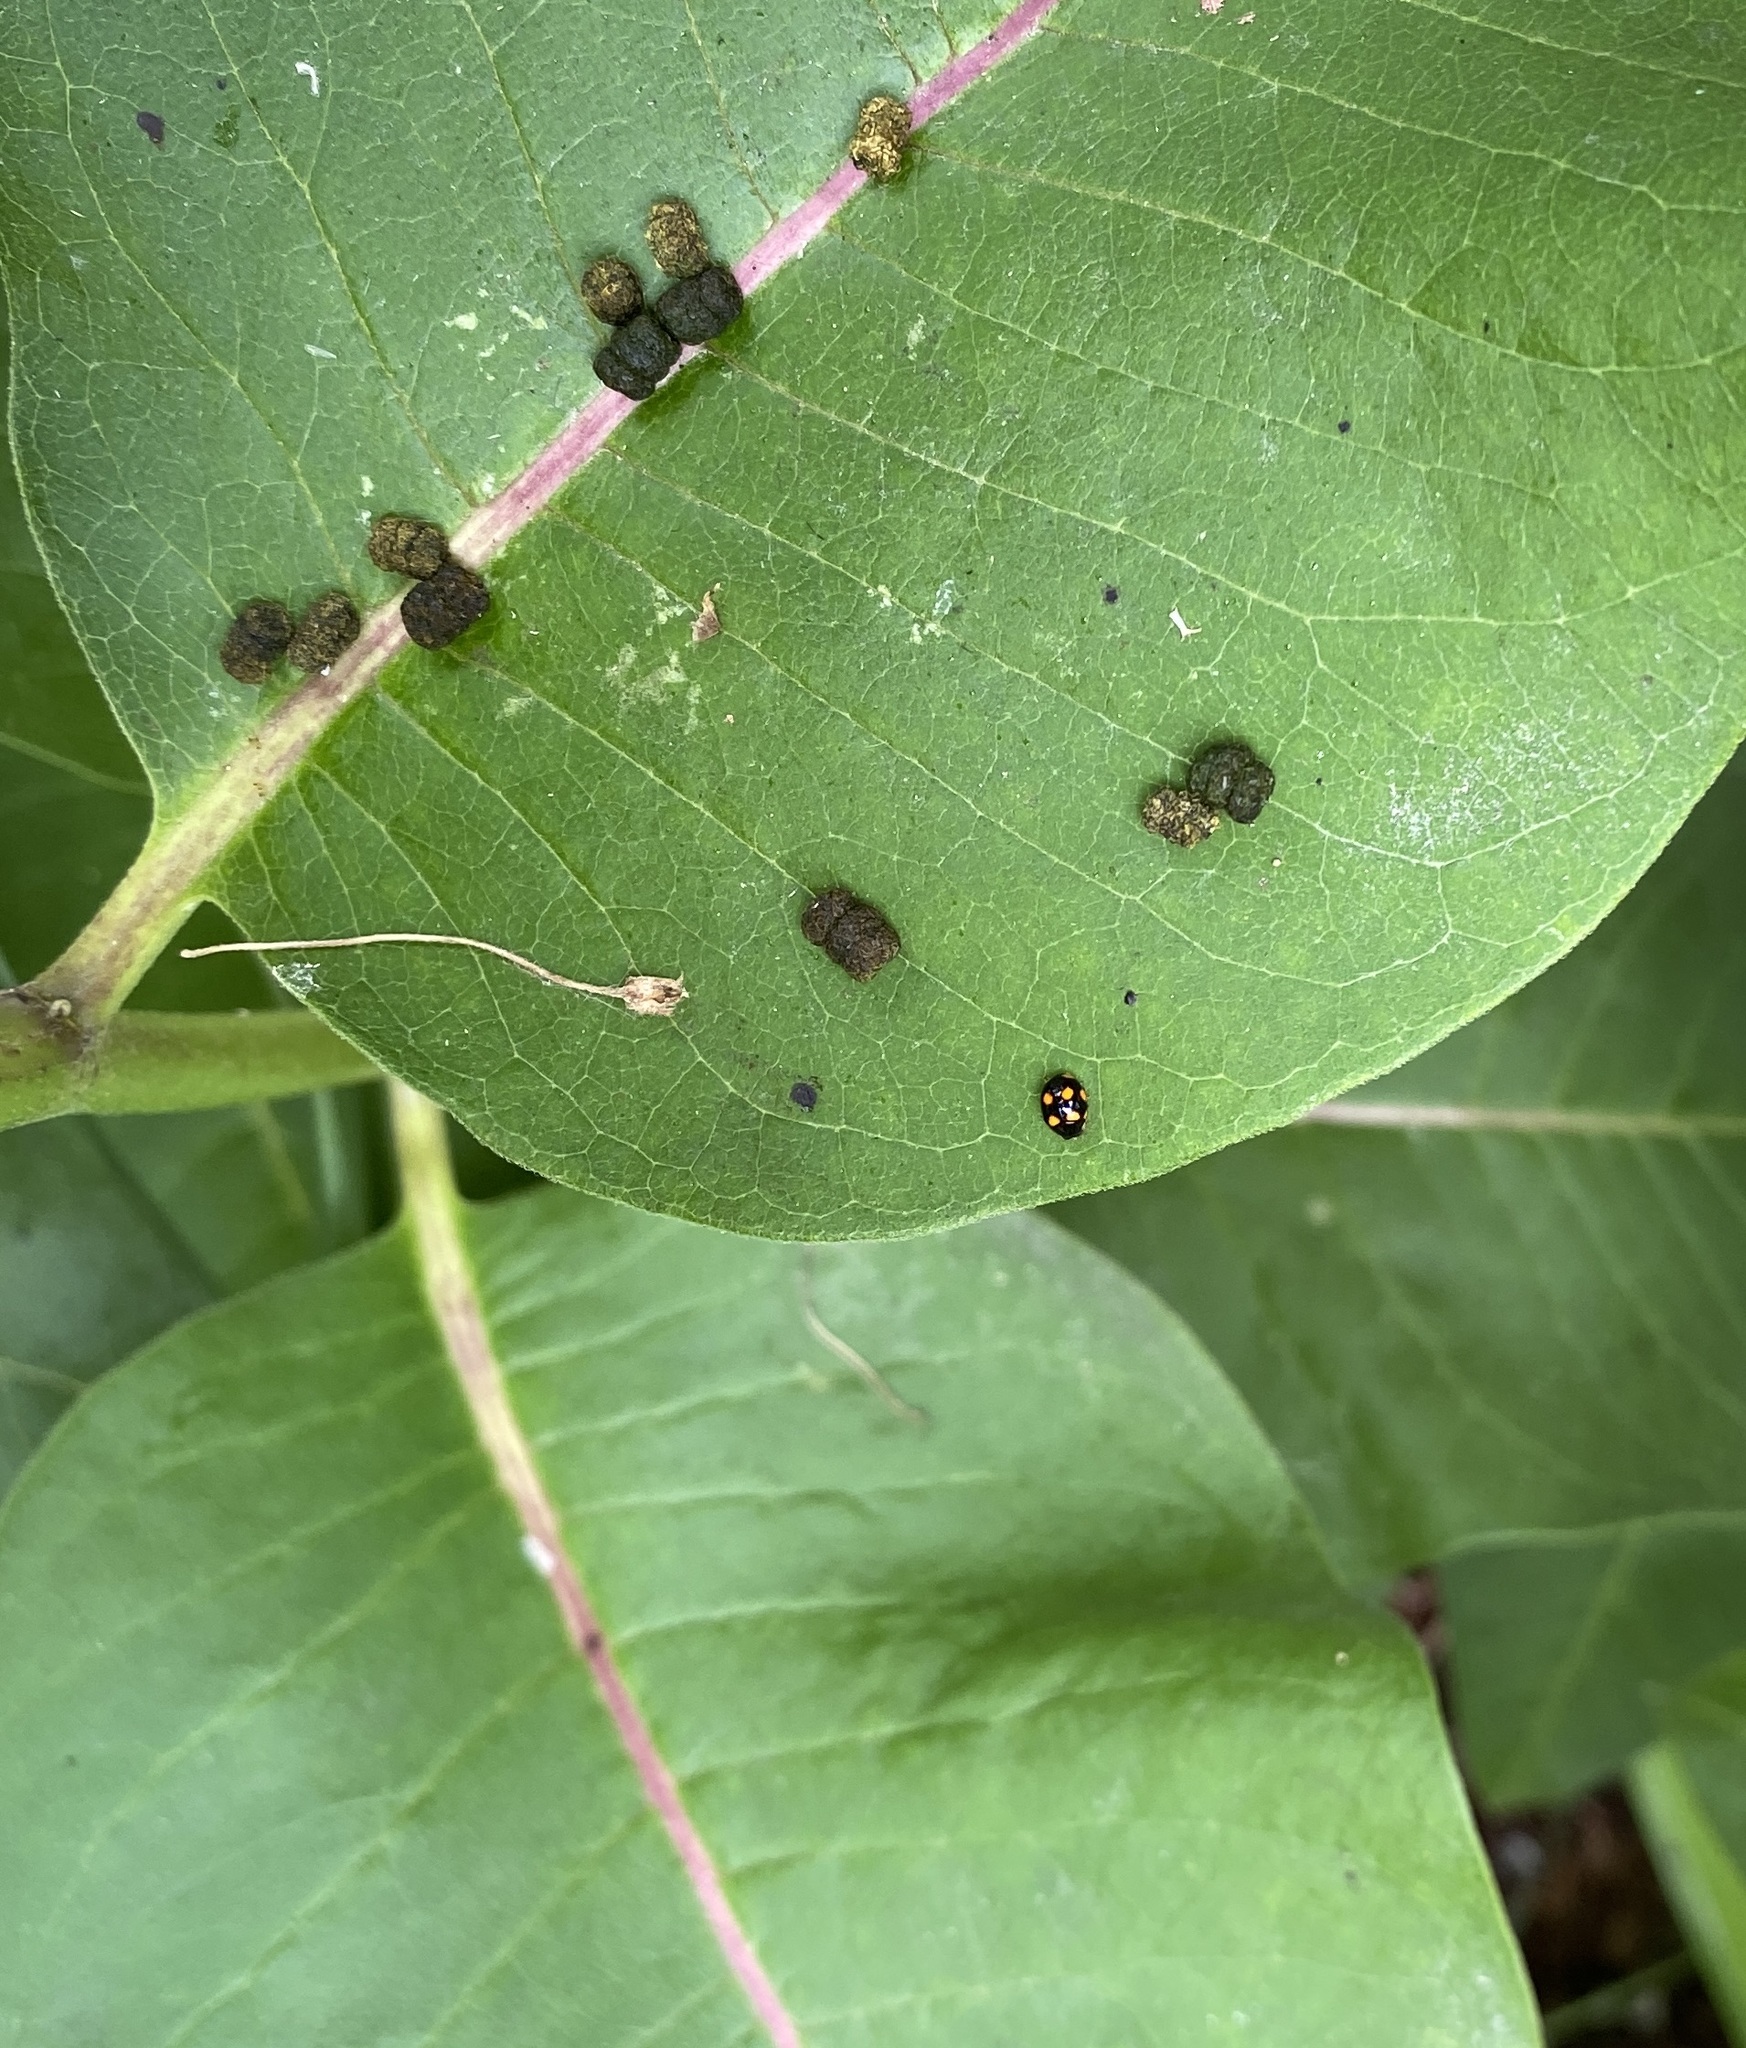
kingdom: Animalia
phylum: Arthropoda
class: Insecta
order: Coleoptera
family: Coccinellidae
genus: Brachiacantha
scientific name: Brachiacantha ursina
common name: Ursine spurleg lady beetle
